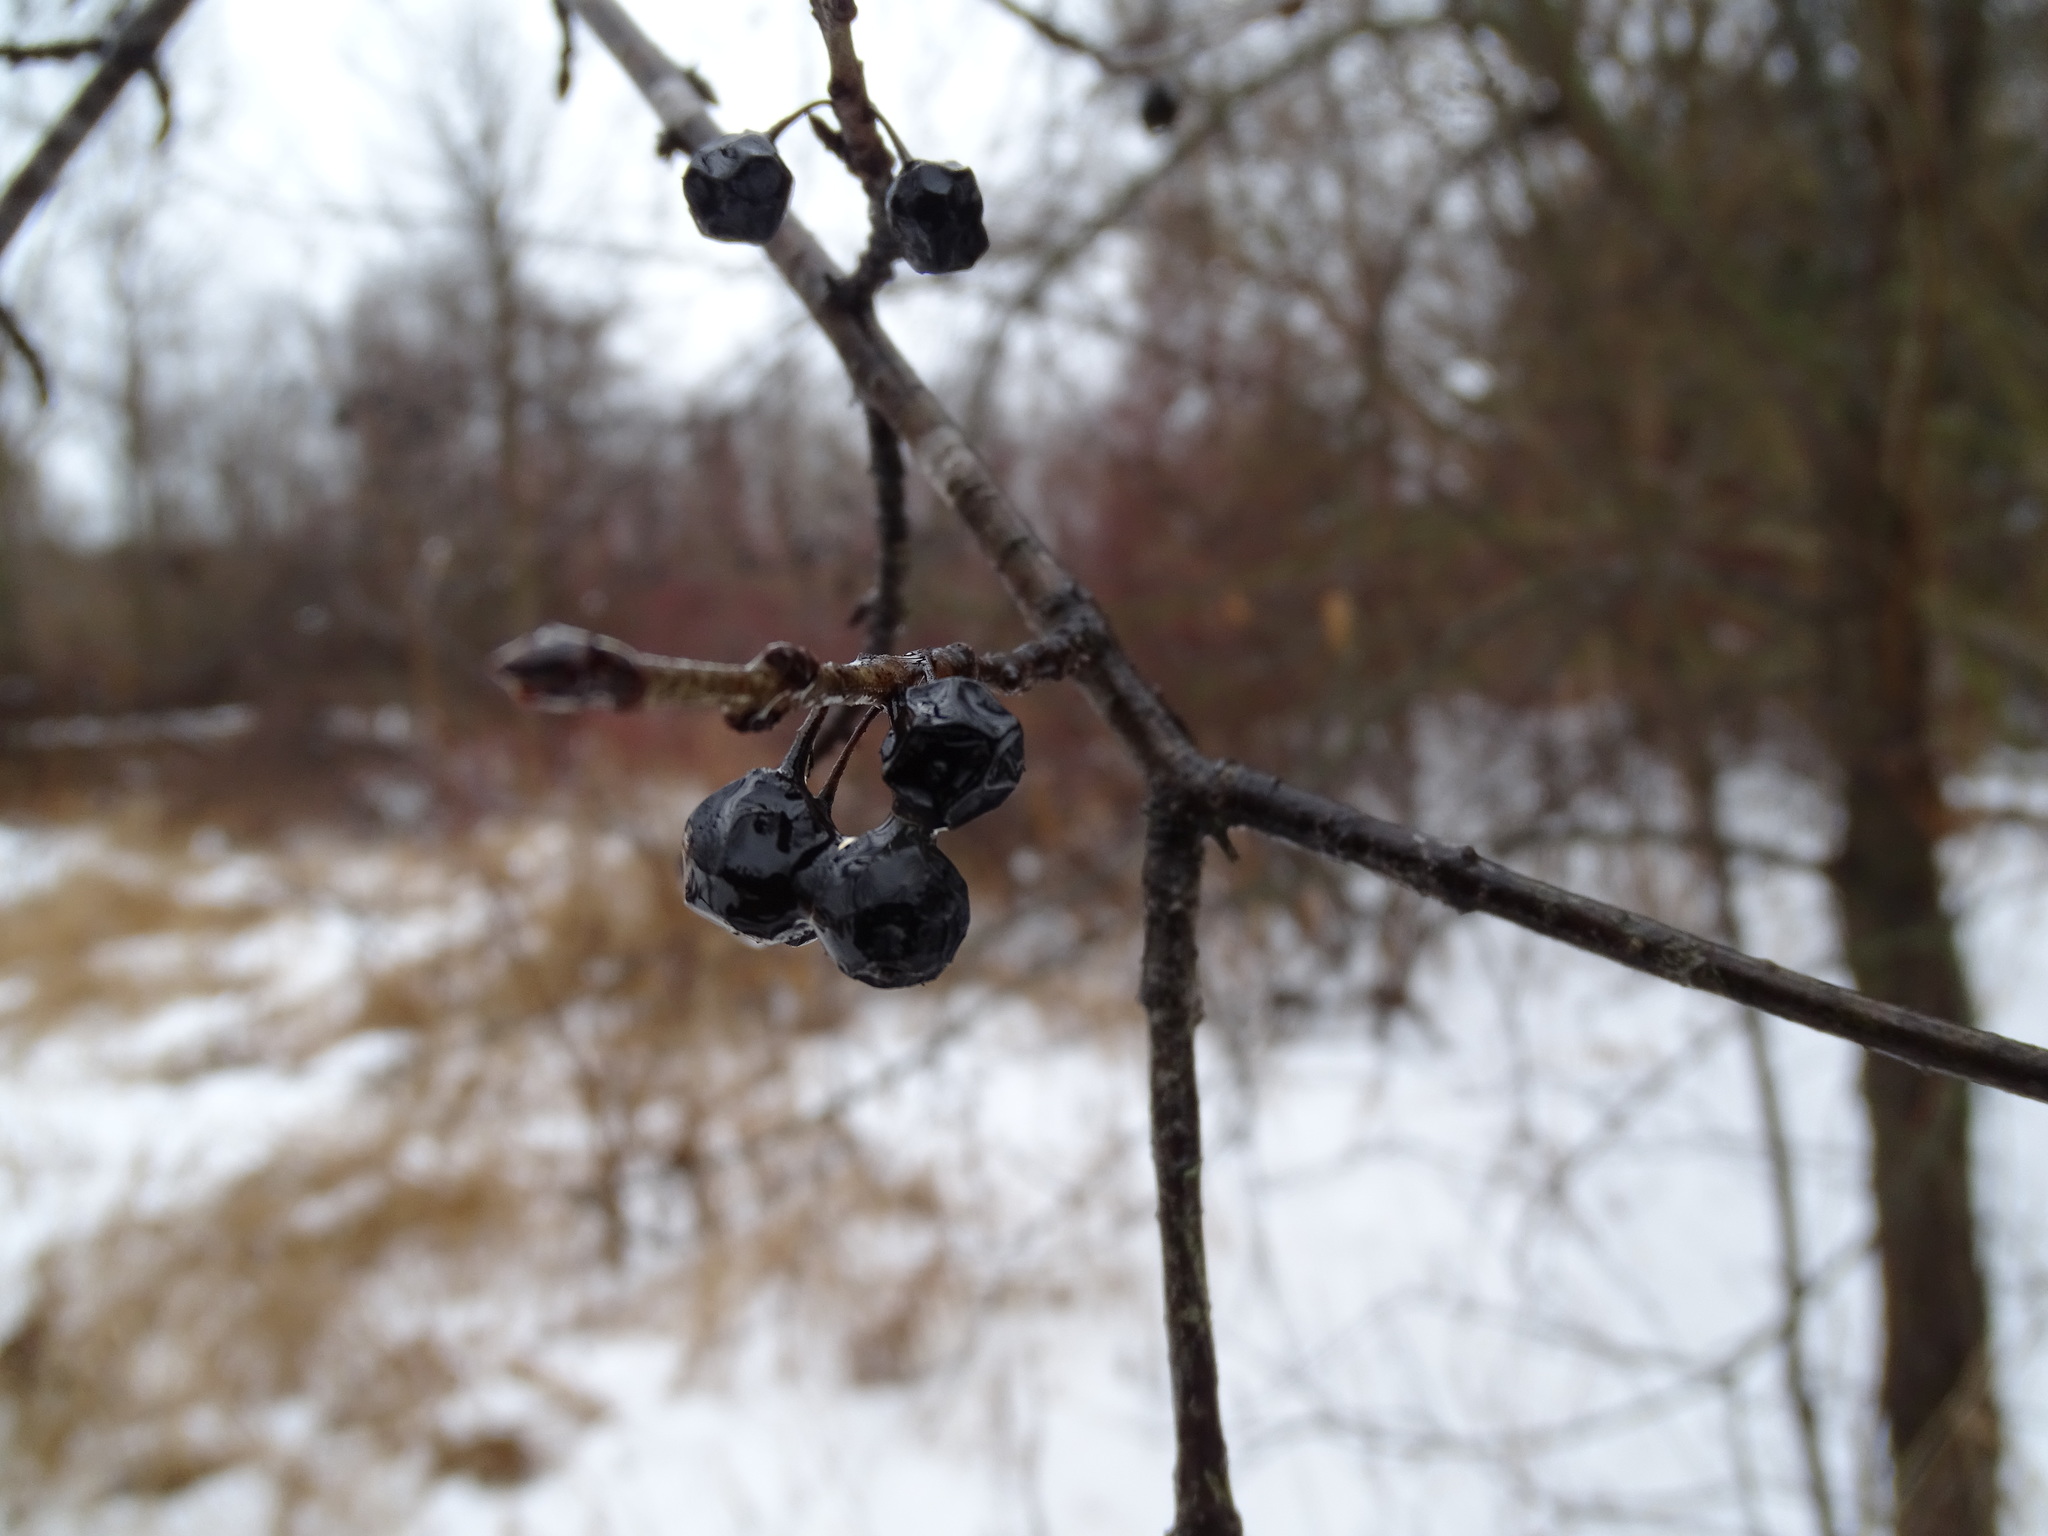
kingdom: Plantae
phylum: Tracheophyta
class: Magnoliopsida
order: Rosales
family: Rhamnaceae
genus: Rhamnus
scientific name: Rhamnus cathartica
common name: Common buckthorn
